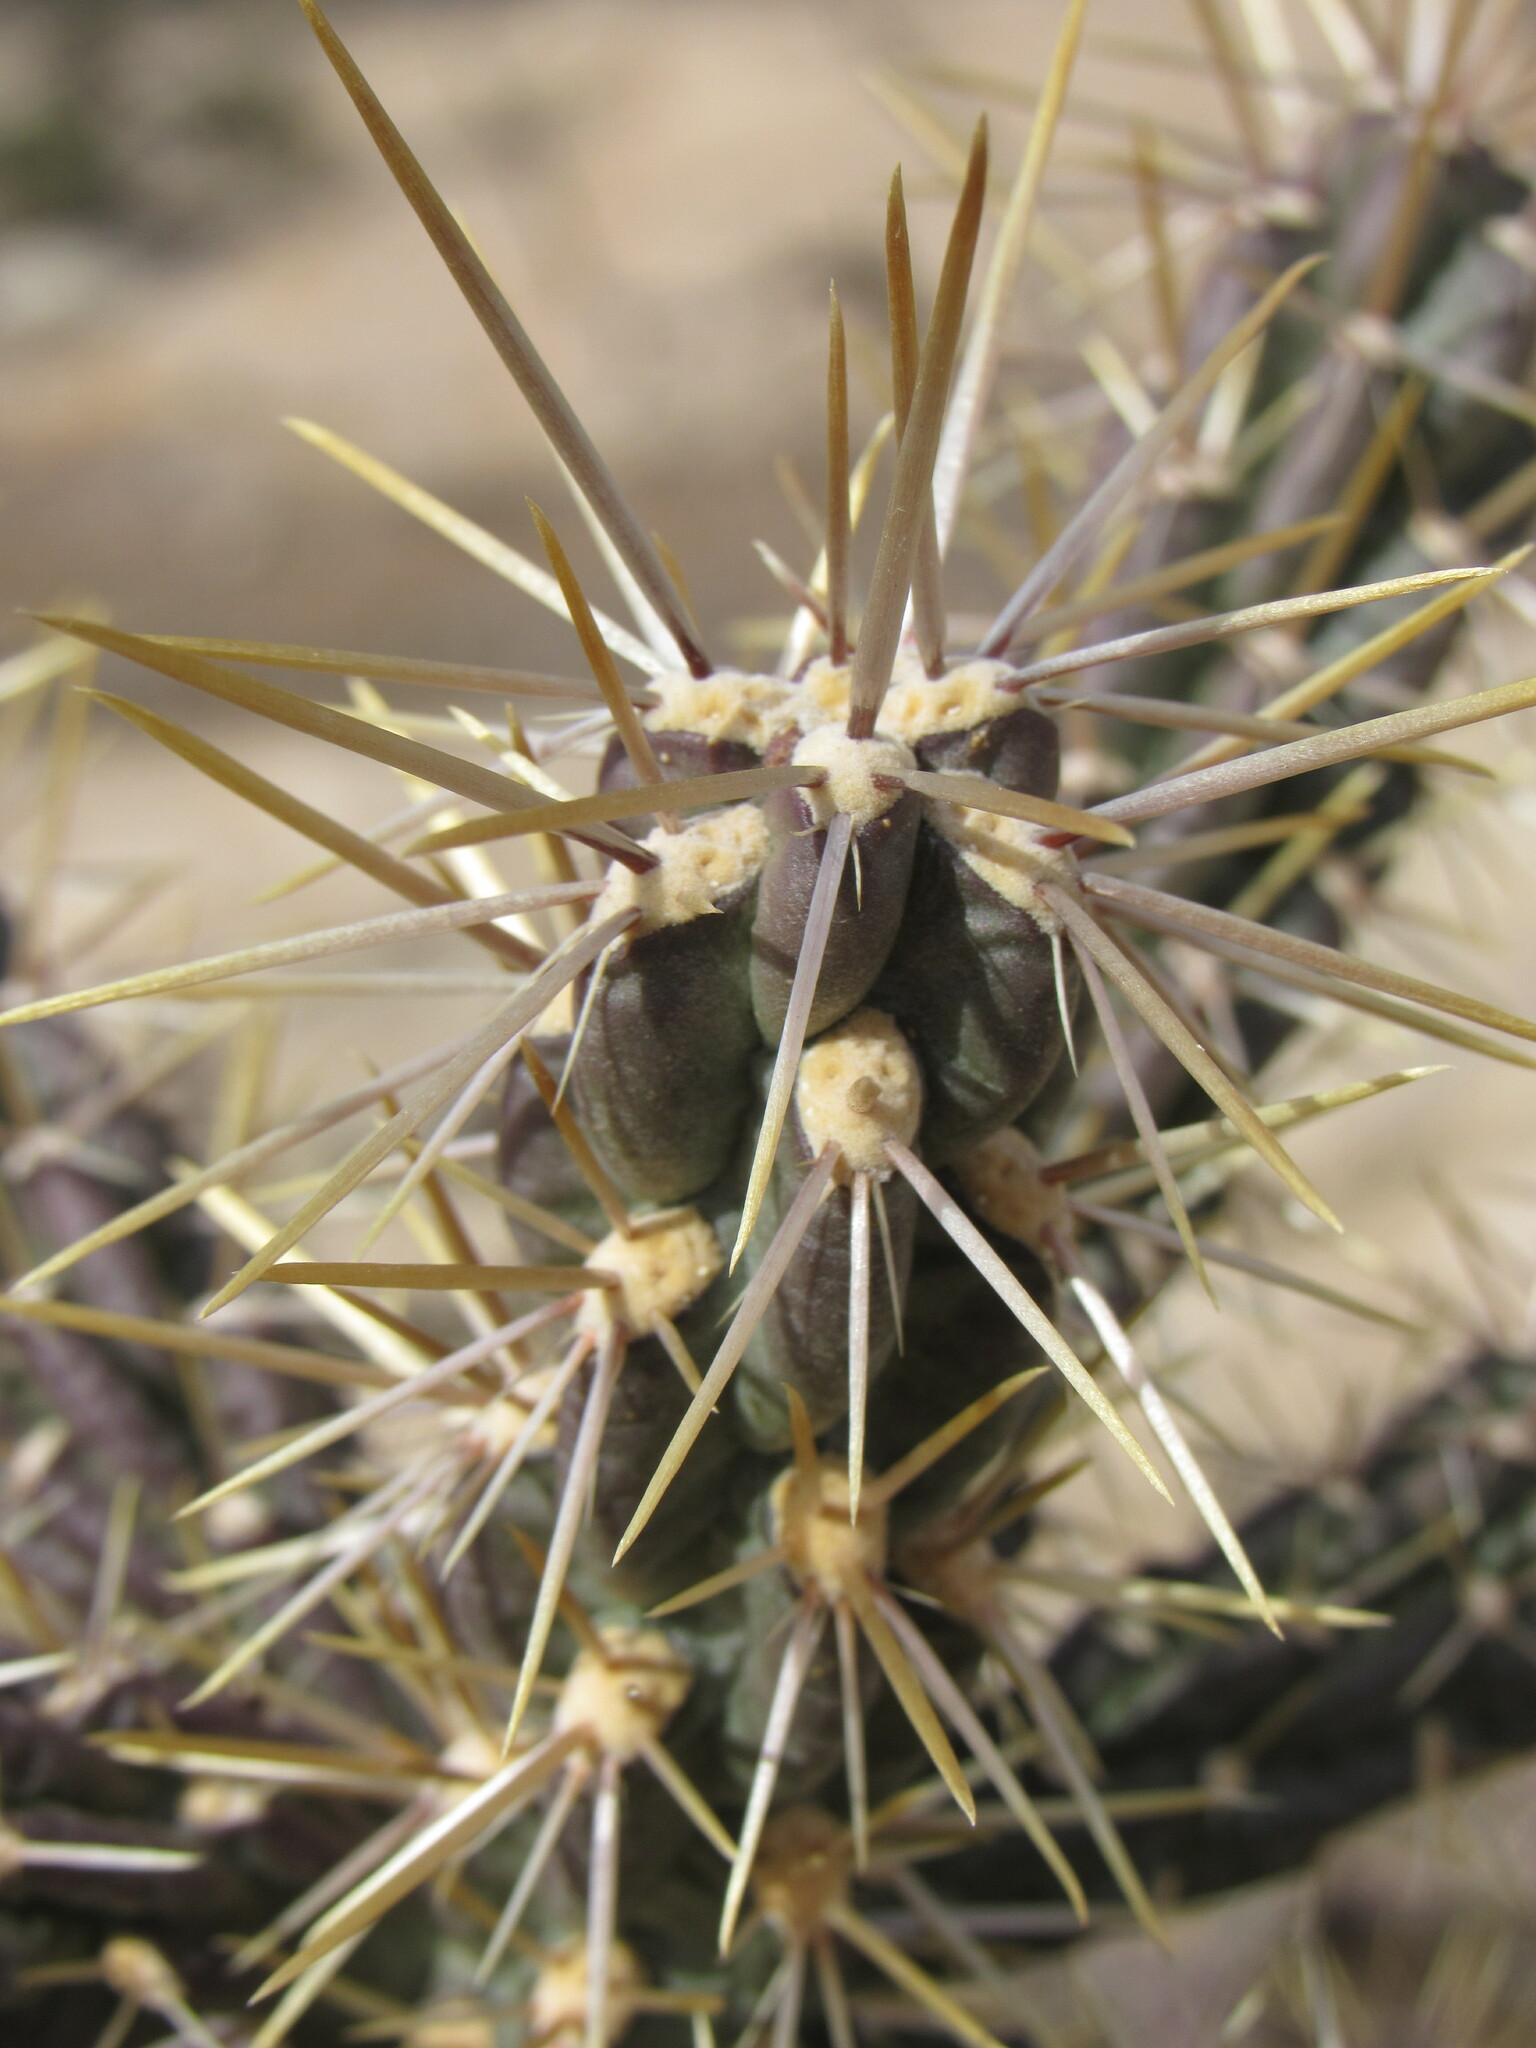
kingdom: Plantae
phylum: Tracheophyta
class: Magnoliopsida
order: Caryophyllales
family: Cactaceae
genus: Cylindropuntia
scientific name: Cylindropuntia viridiflora
